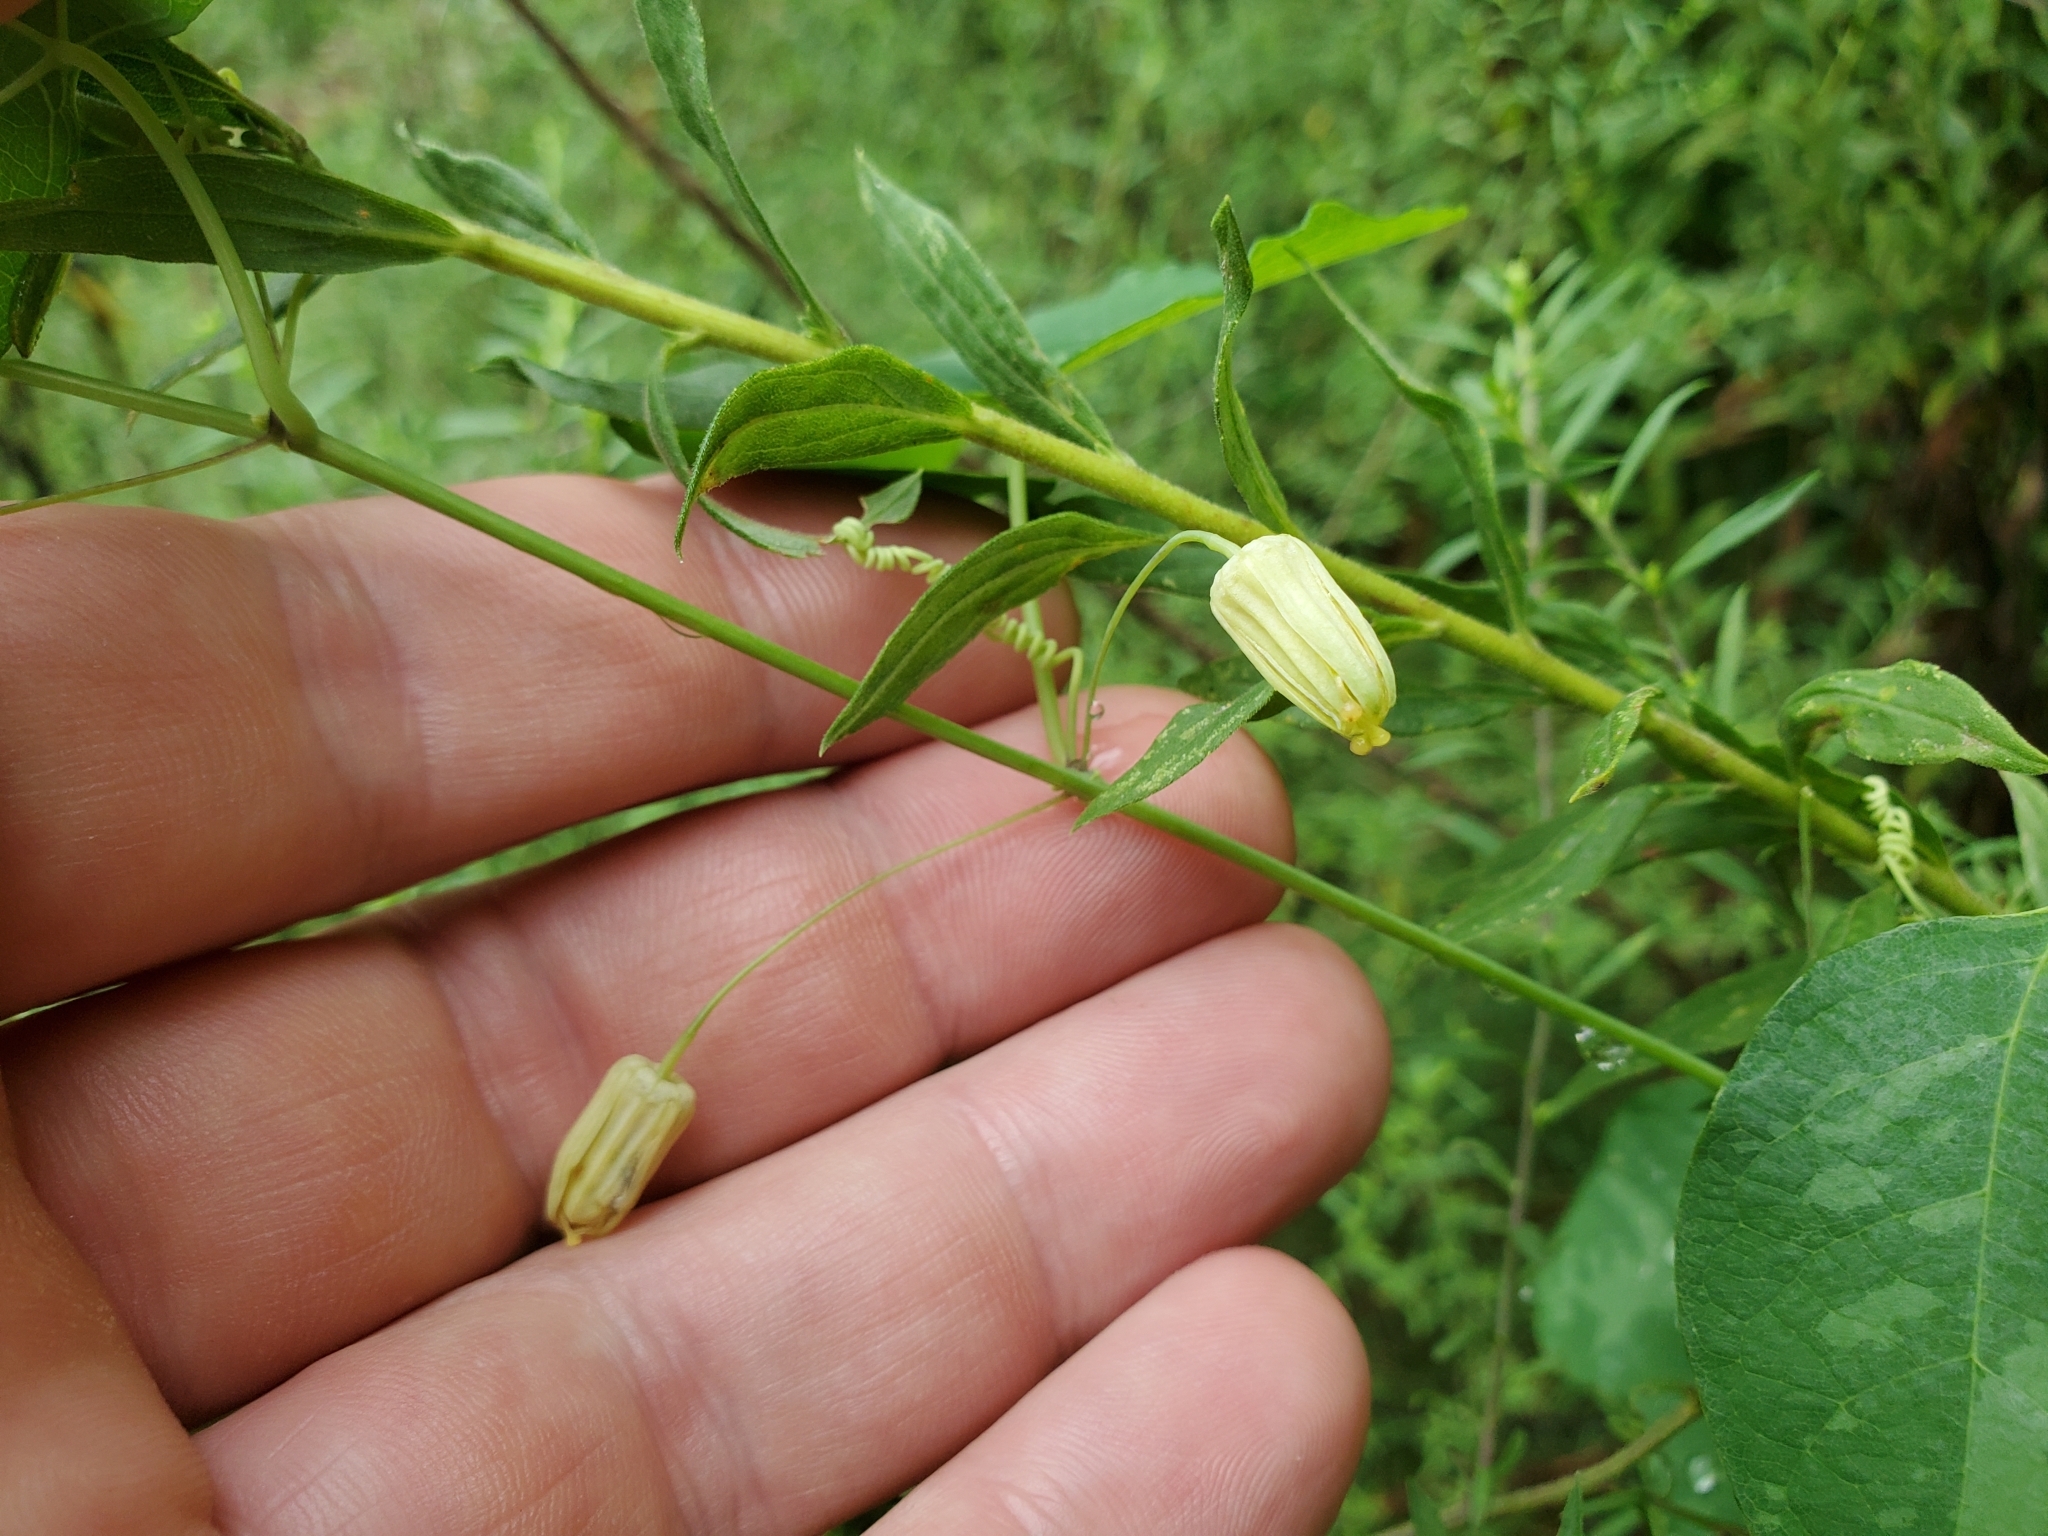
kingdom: Plantae
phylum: Tracheophyta
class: Magnoliopsida
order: Malpighiales
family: Passifloraceae
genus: Passiflora
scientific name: Passiflora lutea
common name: Yellow passionflower
